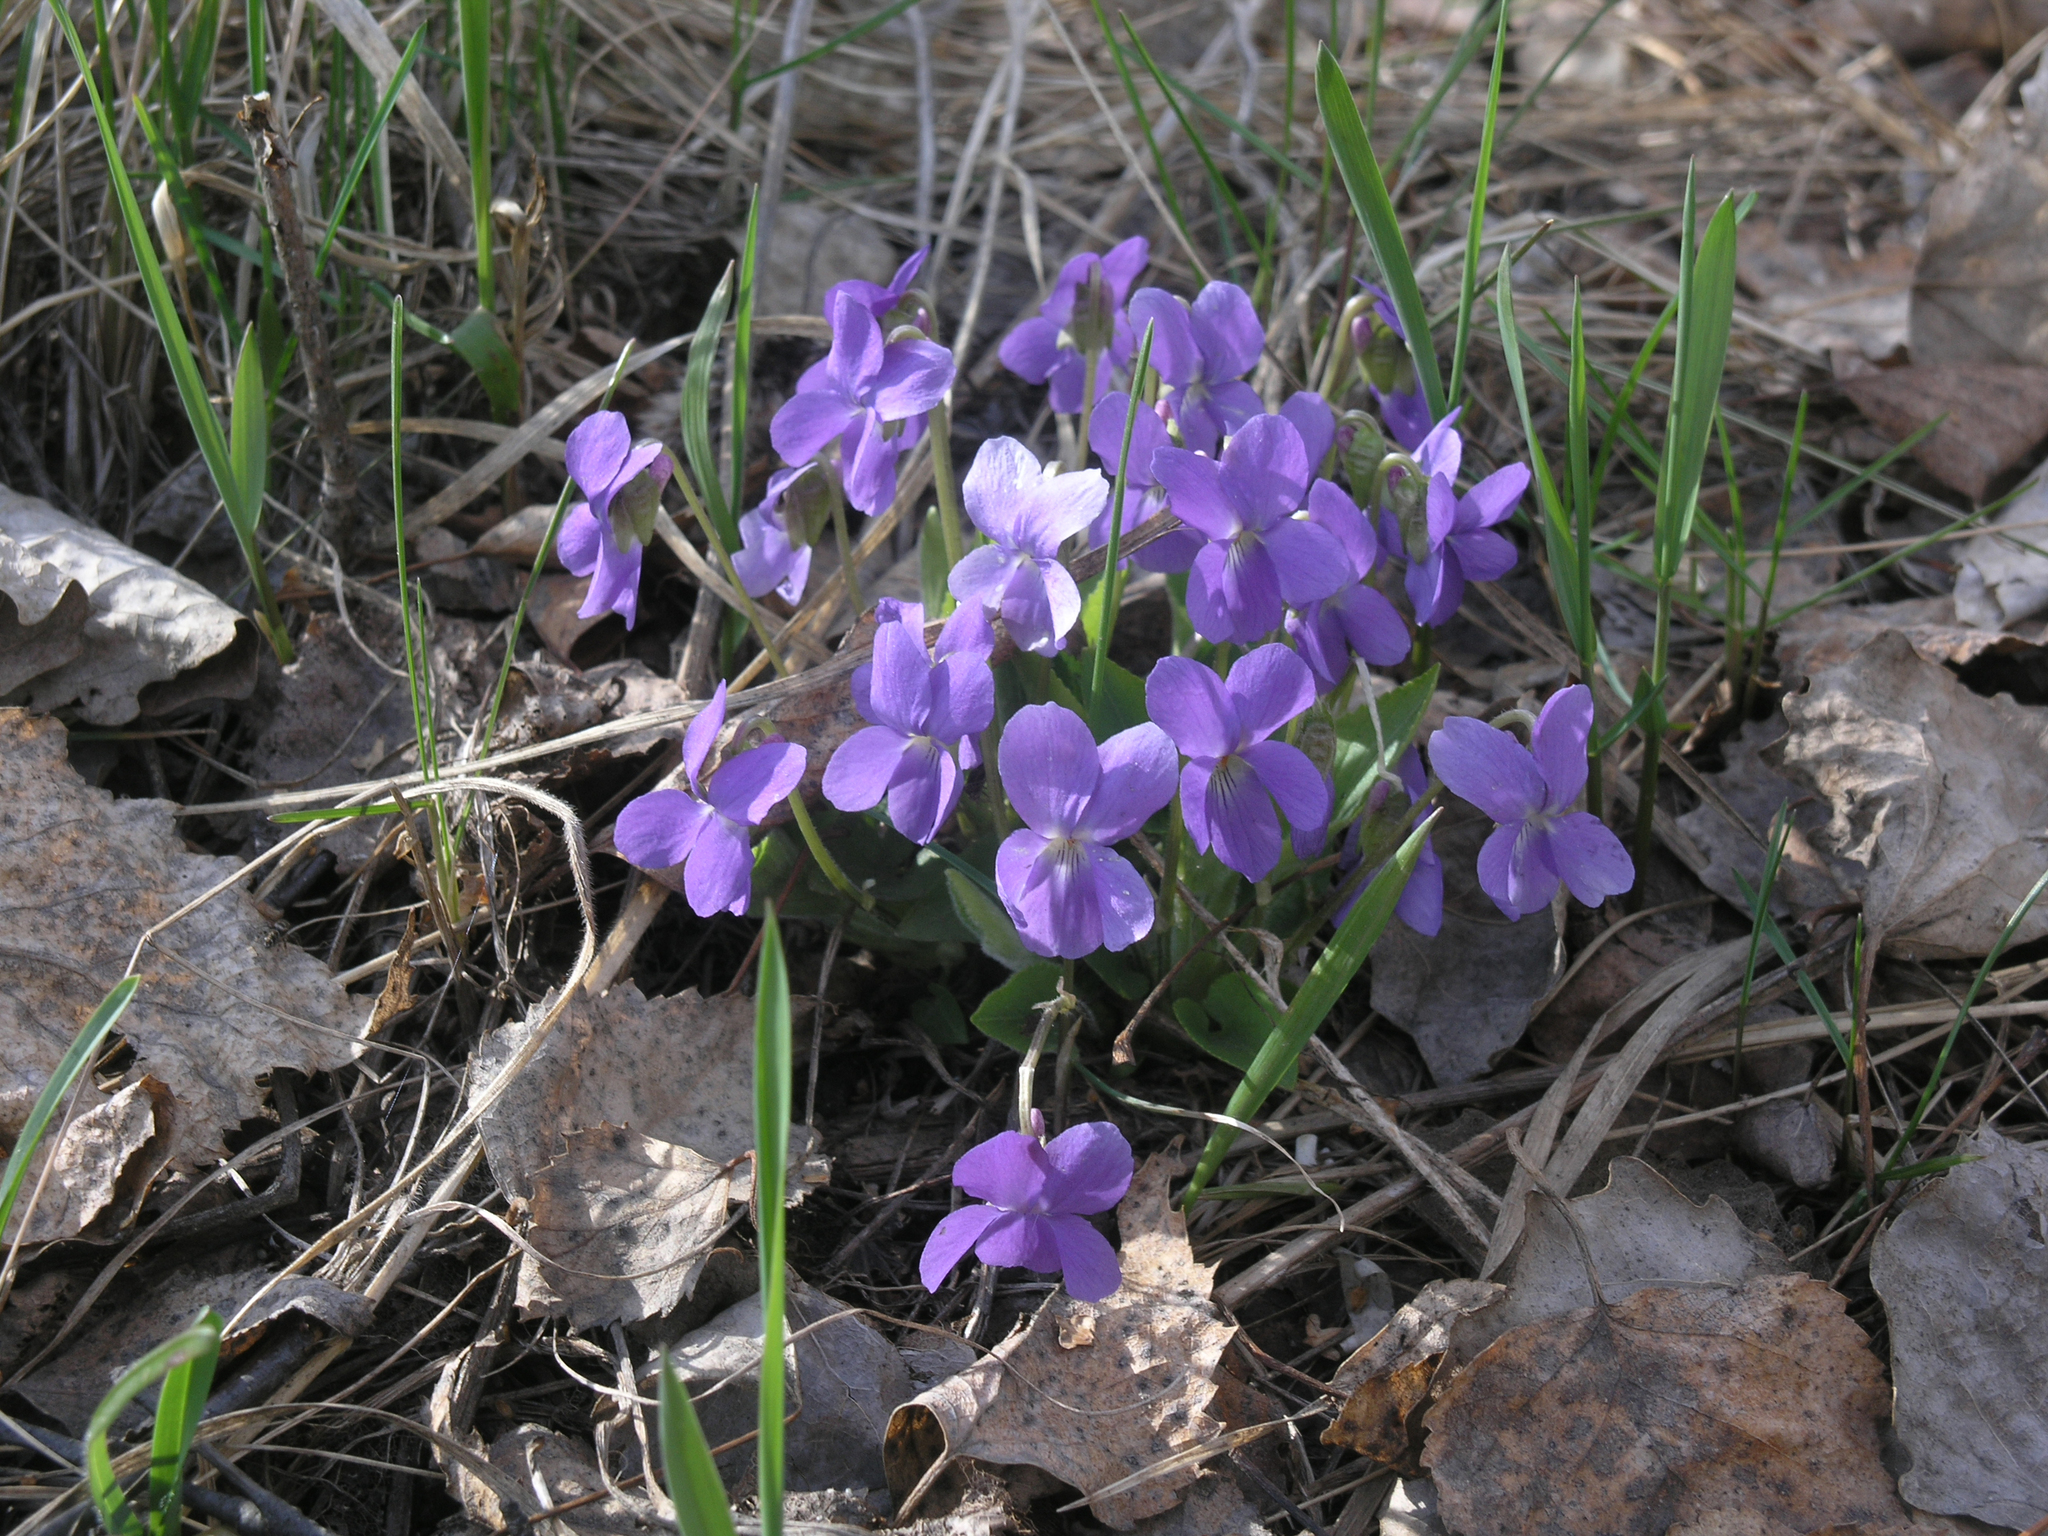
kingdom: Plantae
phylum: Tracheophyta
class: Magnoliopsida
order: Malpighiales
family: Violaceae
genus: Viola
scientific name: Viola hirta
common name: Hairy violet
